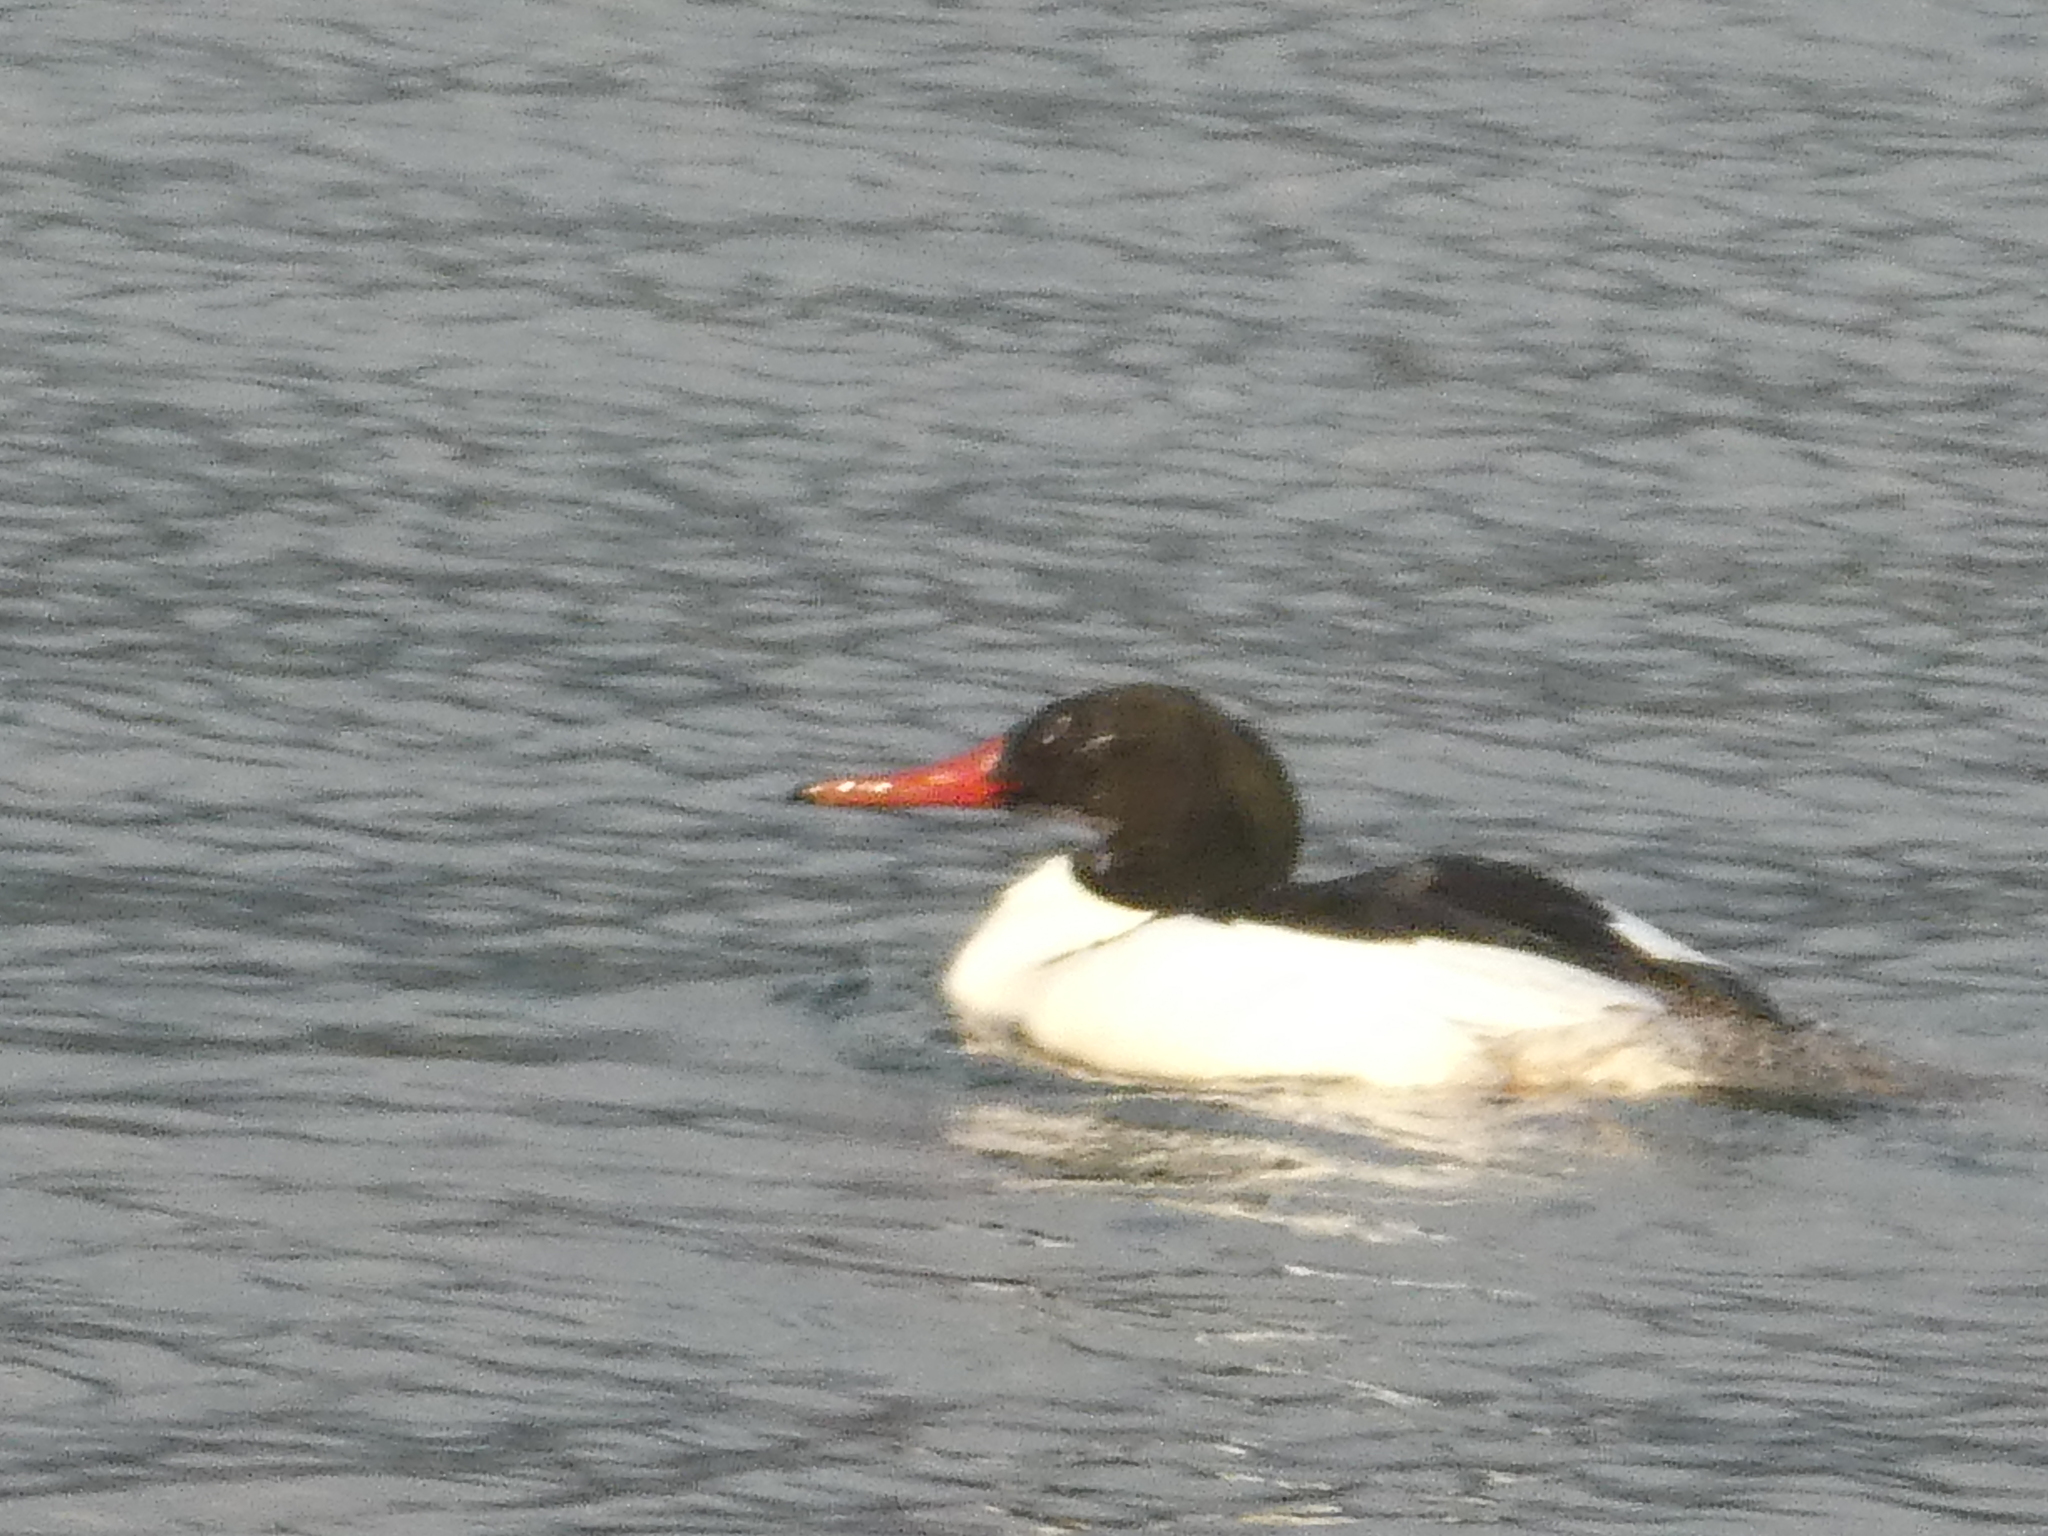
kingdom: Animalia
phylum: Chordata
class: Aves
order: Anseriformes
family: Anatidae
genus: Mergus
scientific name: Mergus merganser
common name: Common merganser
